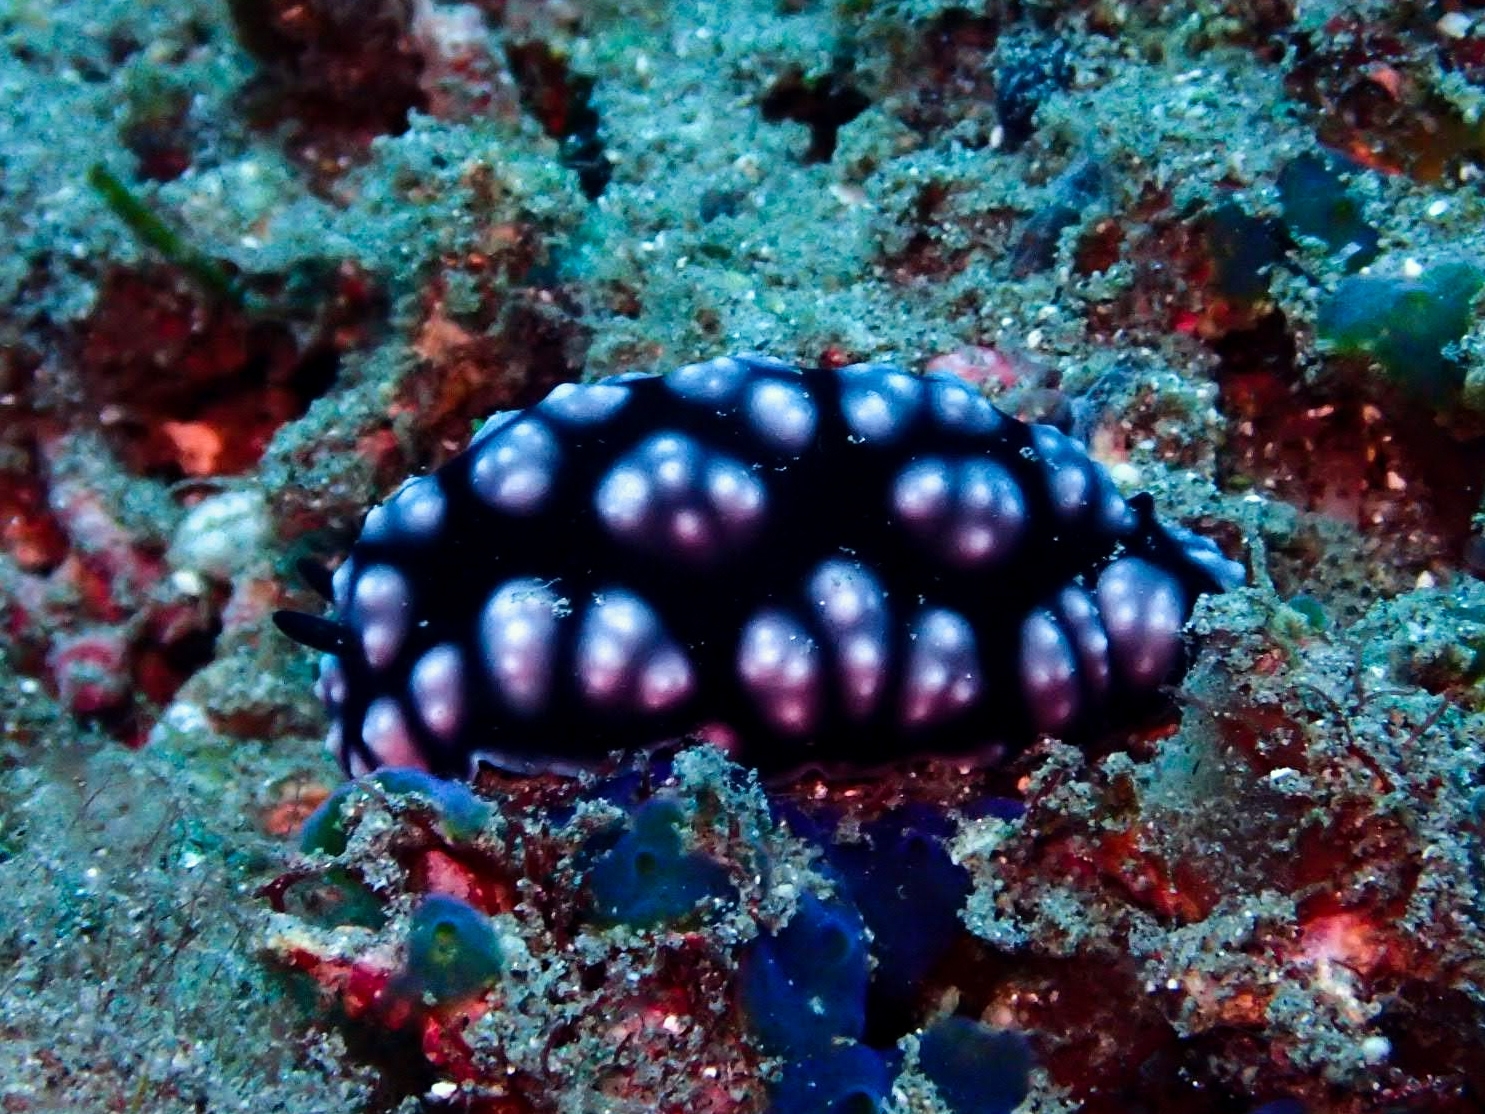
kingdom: Animalia
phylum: Mollusca
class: Gastropoda
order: Nudibranchia
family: Phyllidiidae
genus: Phyllidiella
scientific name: Phyllidiella pustulosa
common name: Pustular phyllidia
